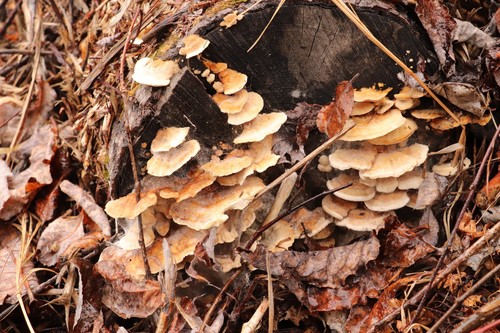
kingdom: Fungi
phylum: Basidiomycota
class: Agaricomycetes
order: Polyporales
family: Polyporaceae
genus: Trametes
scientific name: Trametes ochracea
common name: Ochre bracket
